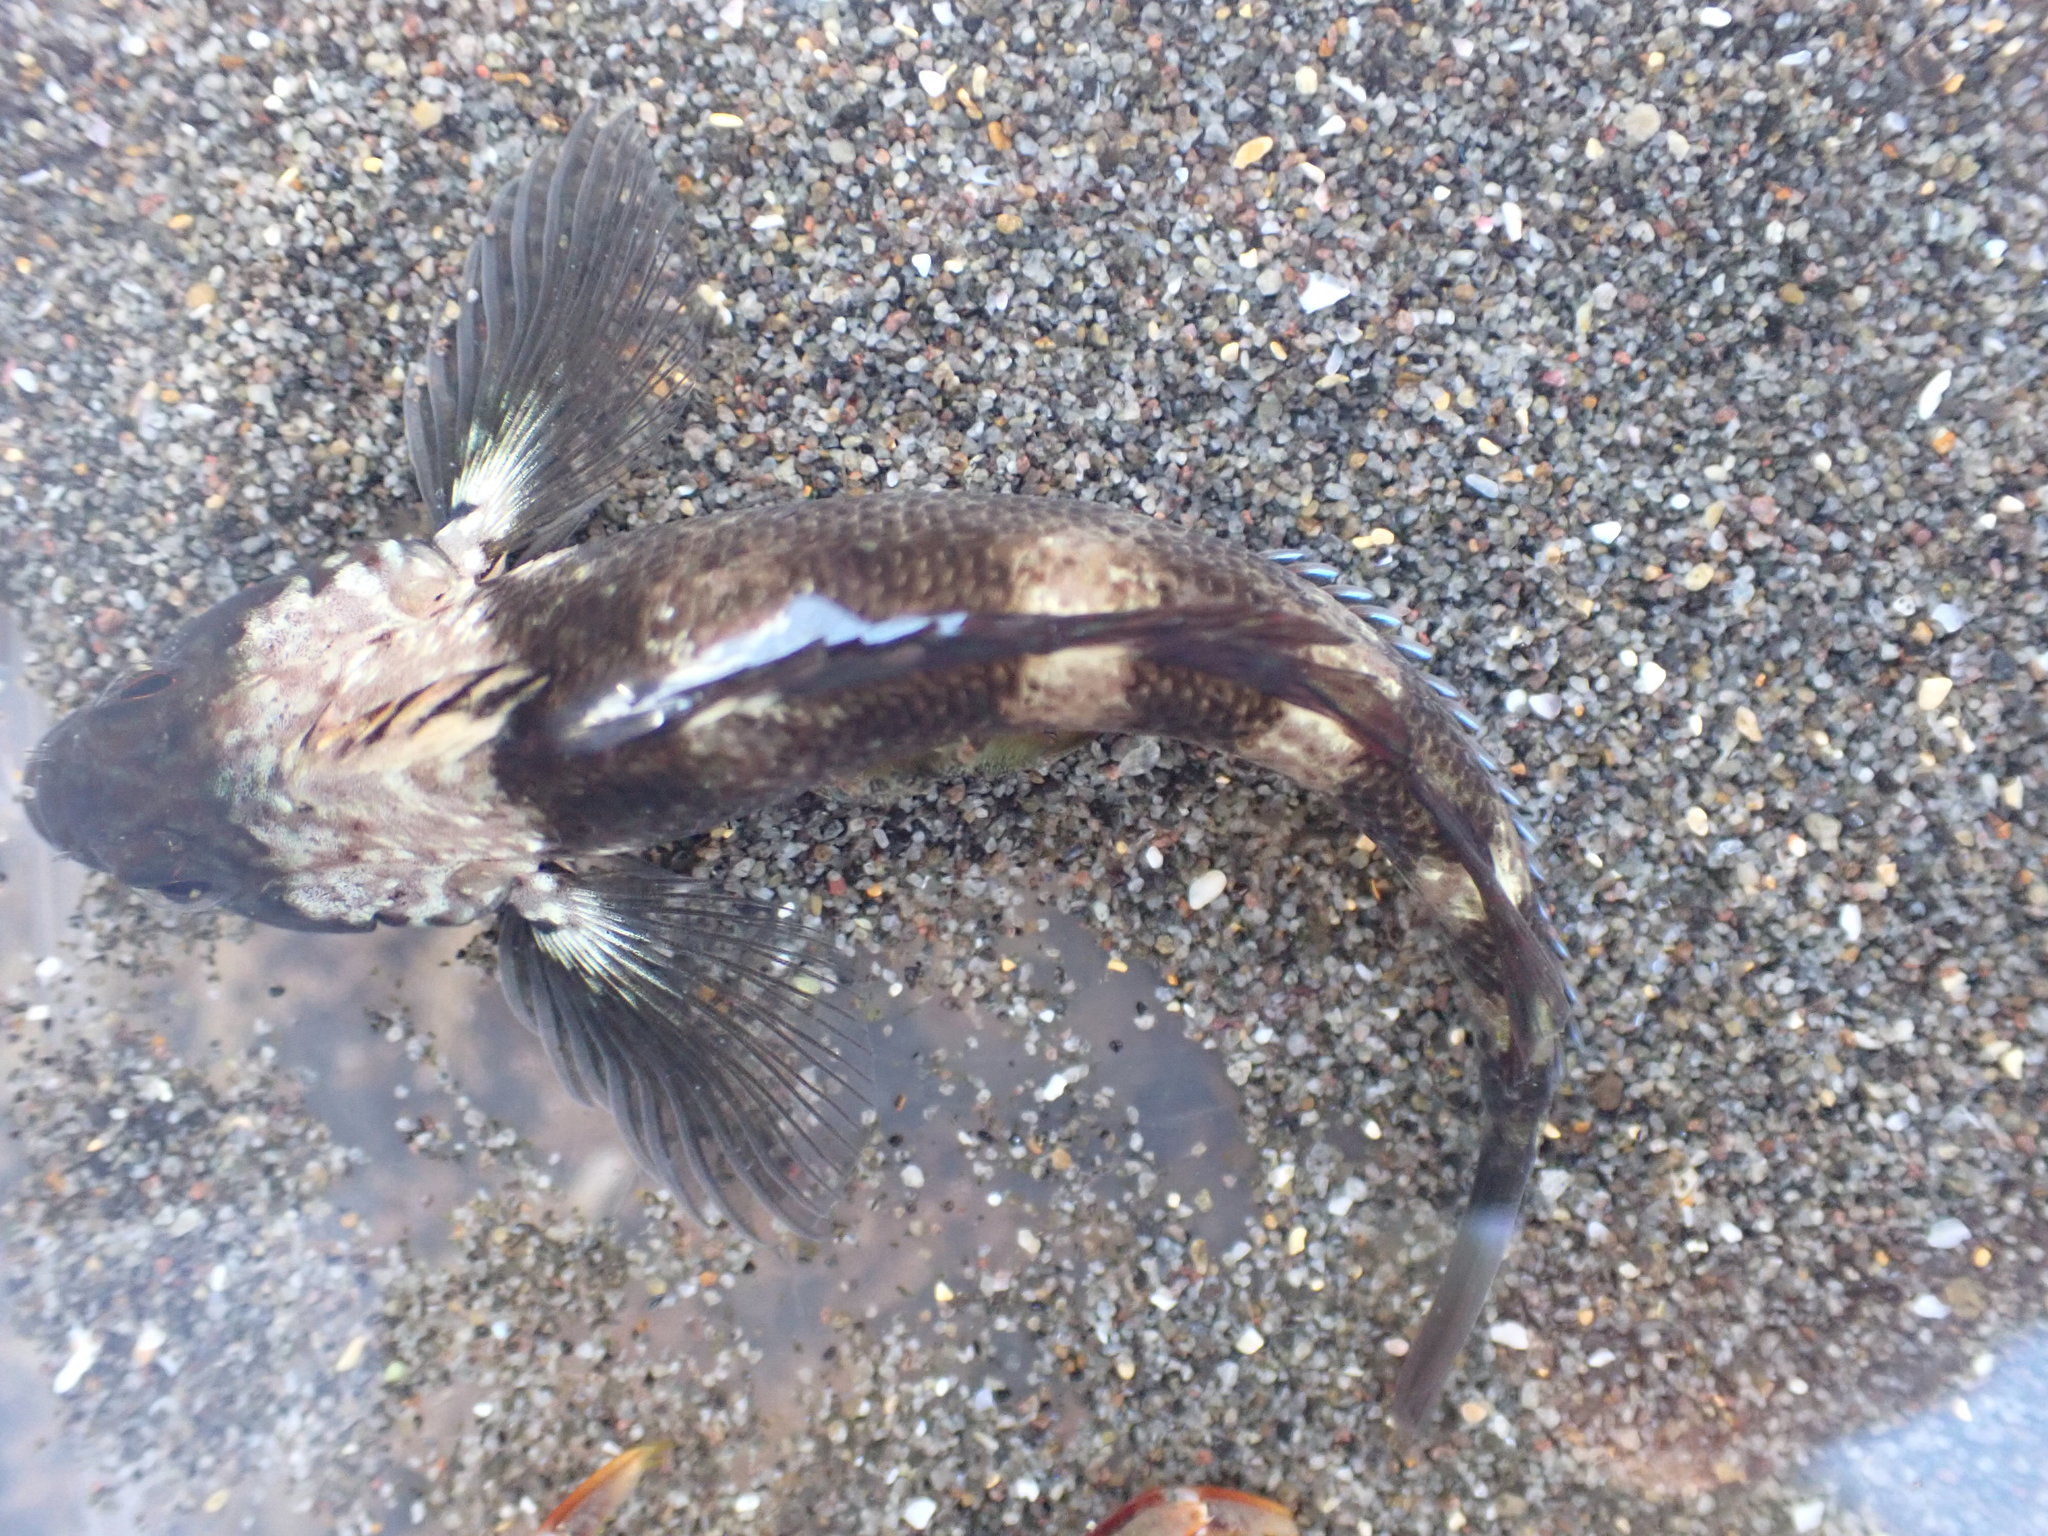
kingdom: Animalia
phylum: Chordata
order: Perciformes
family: Tripterygiidae
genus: Forsterygion
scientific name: Forsterygion gymnotum
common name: Multifid-tentacled robust triplefin
